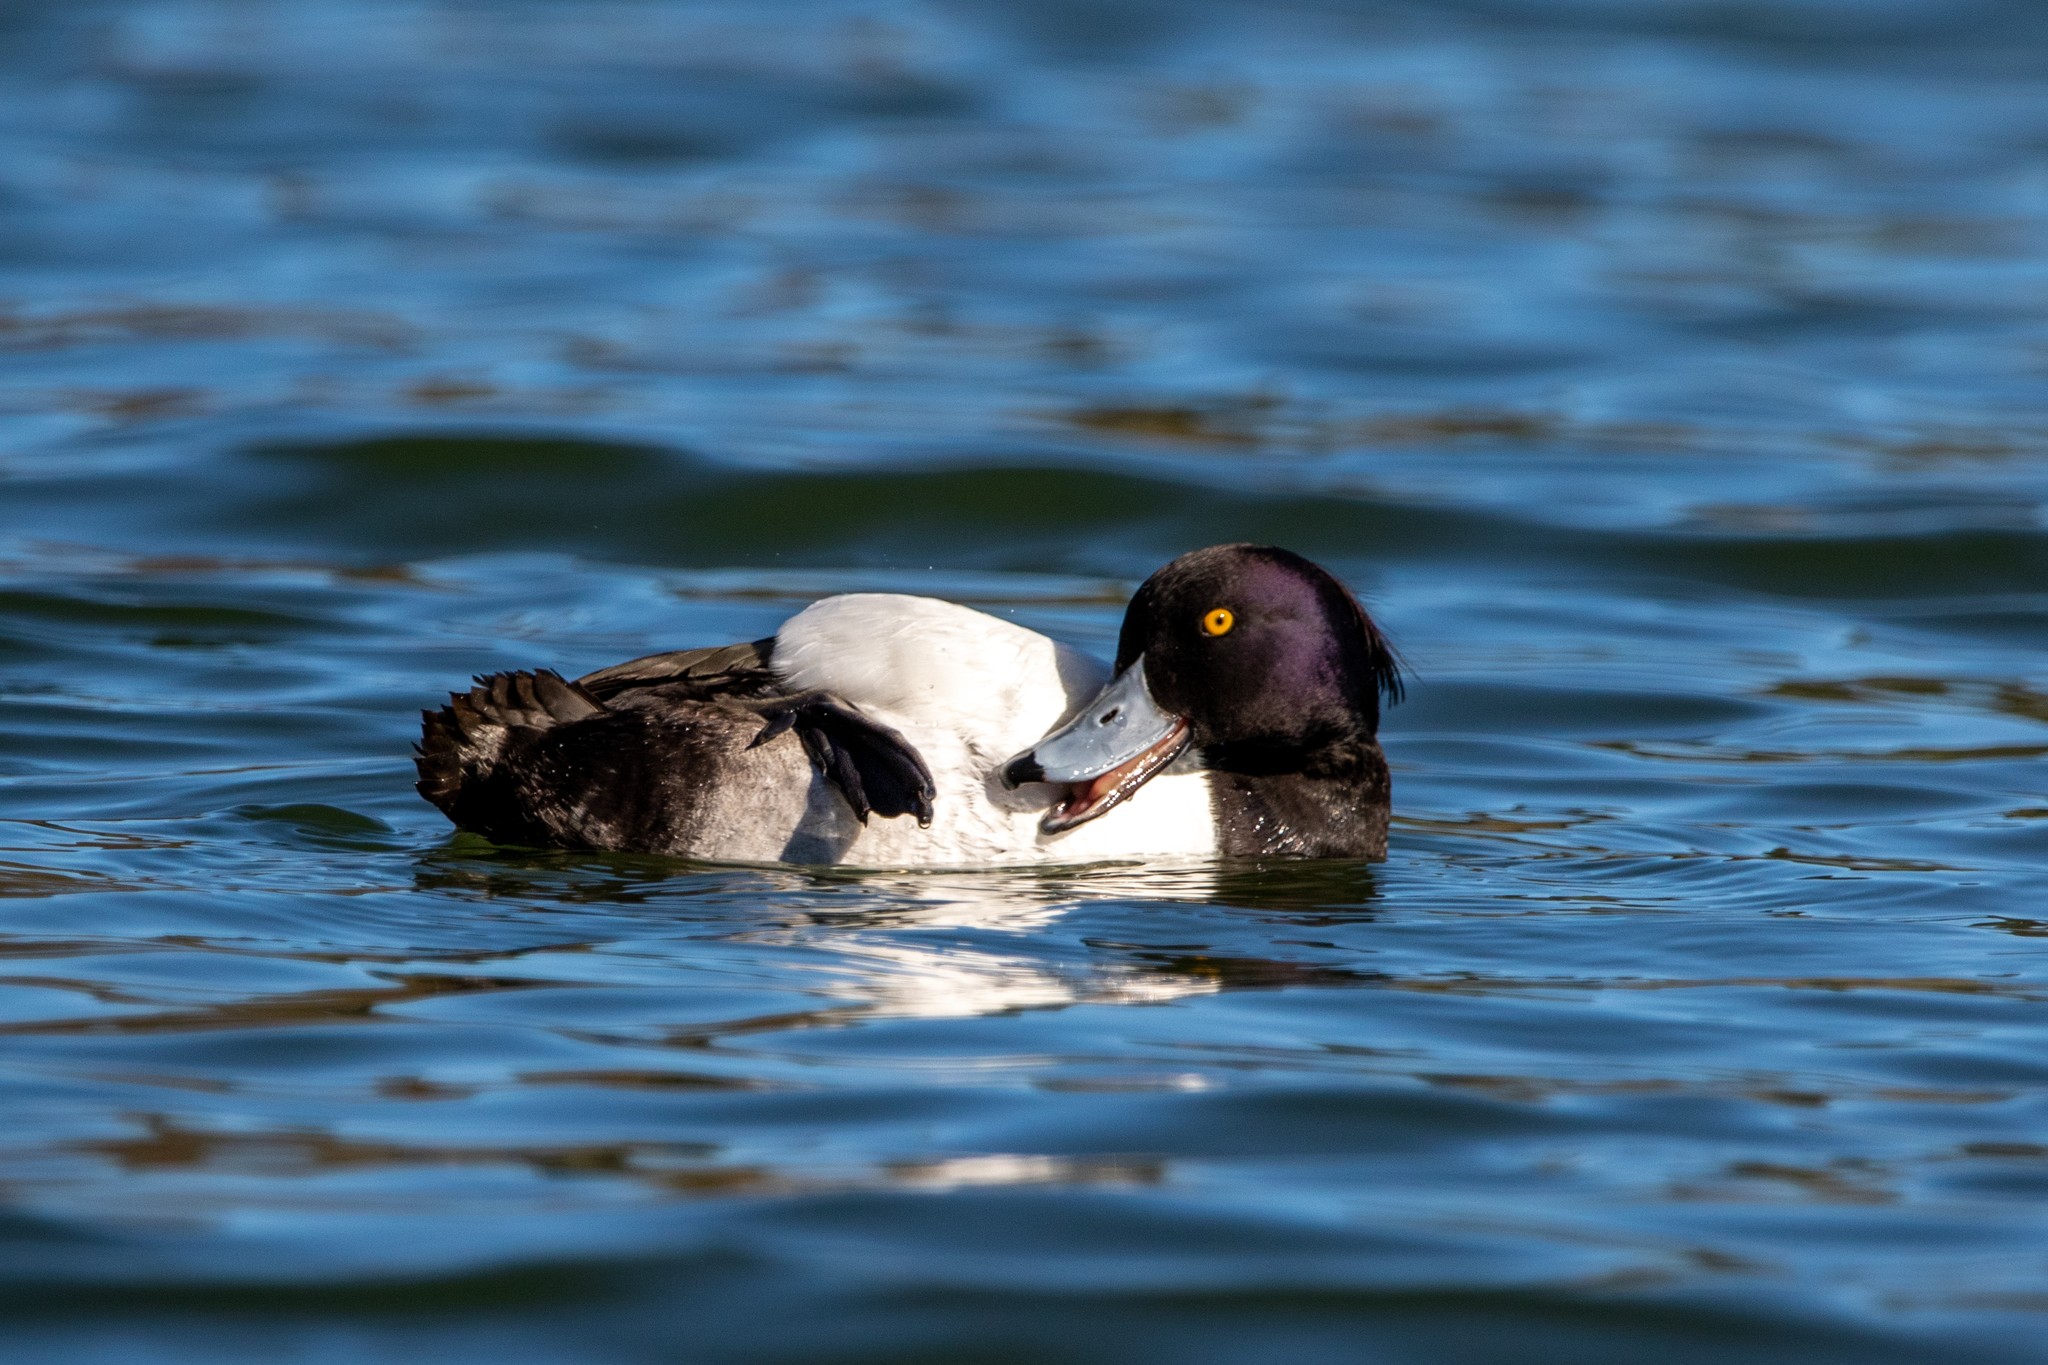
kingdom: Animalia
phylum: Chordata
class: Aves
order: Anseriformes
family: Anatidae
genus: Aythya
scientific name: Aythya fuligula
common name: Tufted duck
